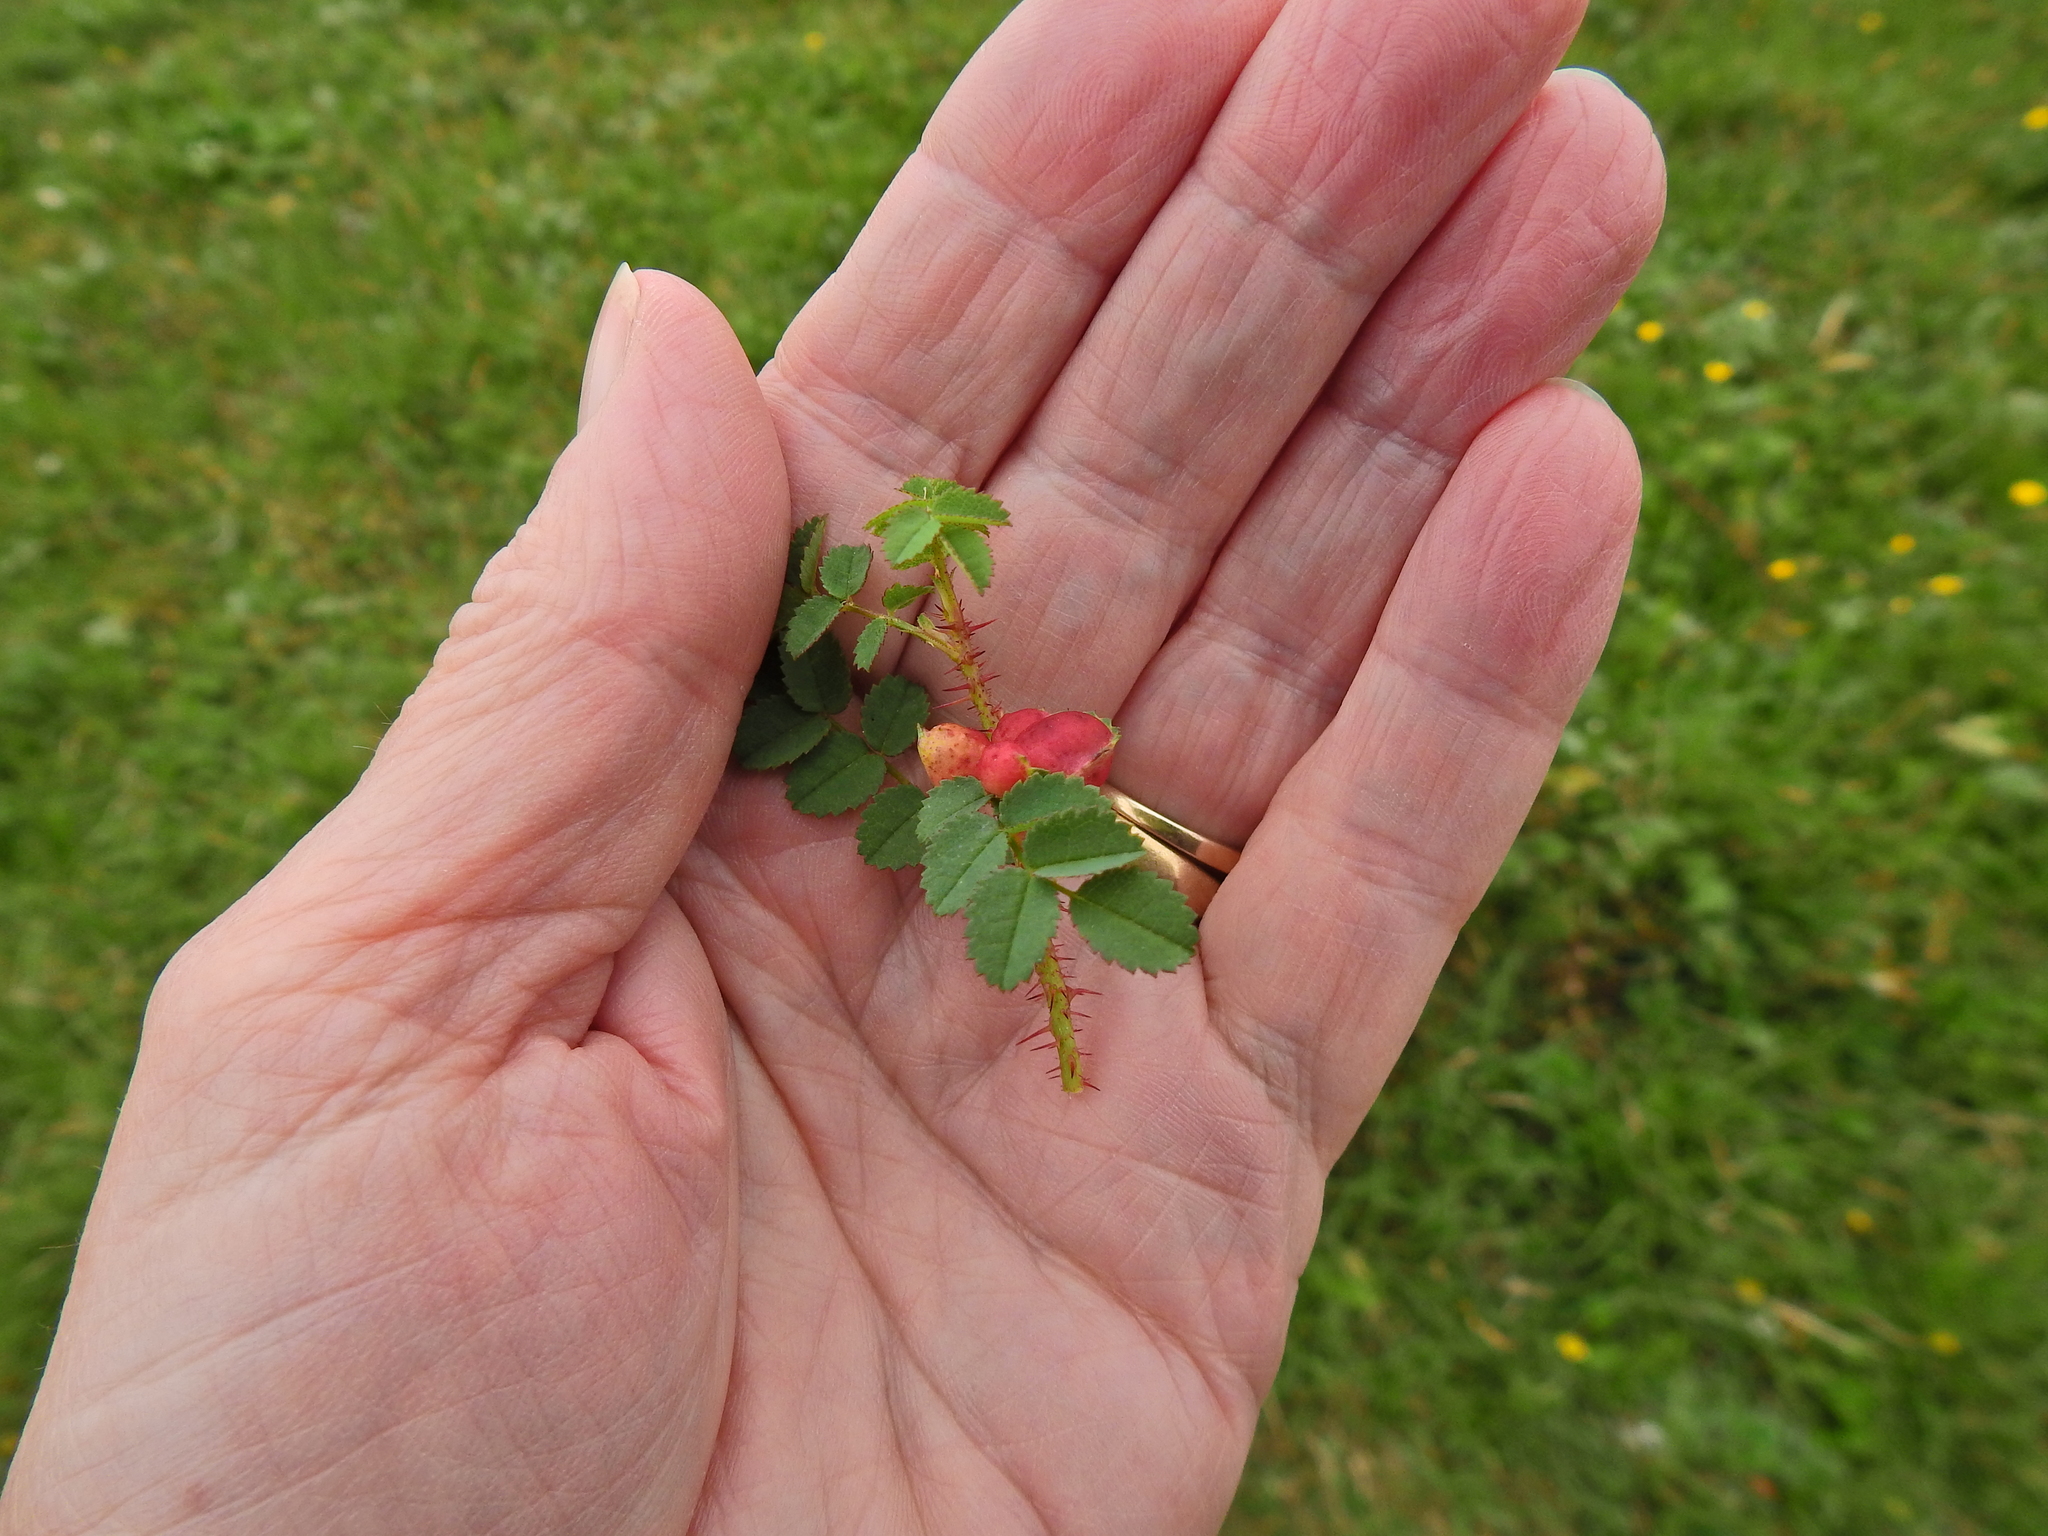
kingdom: Animalia
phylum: Arthropoda
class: Insecta
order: Hymenoptera
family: Cynipidae
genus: Diplolepis
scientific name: Diplolepis spinosissimae
